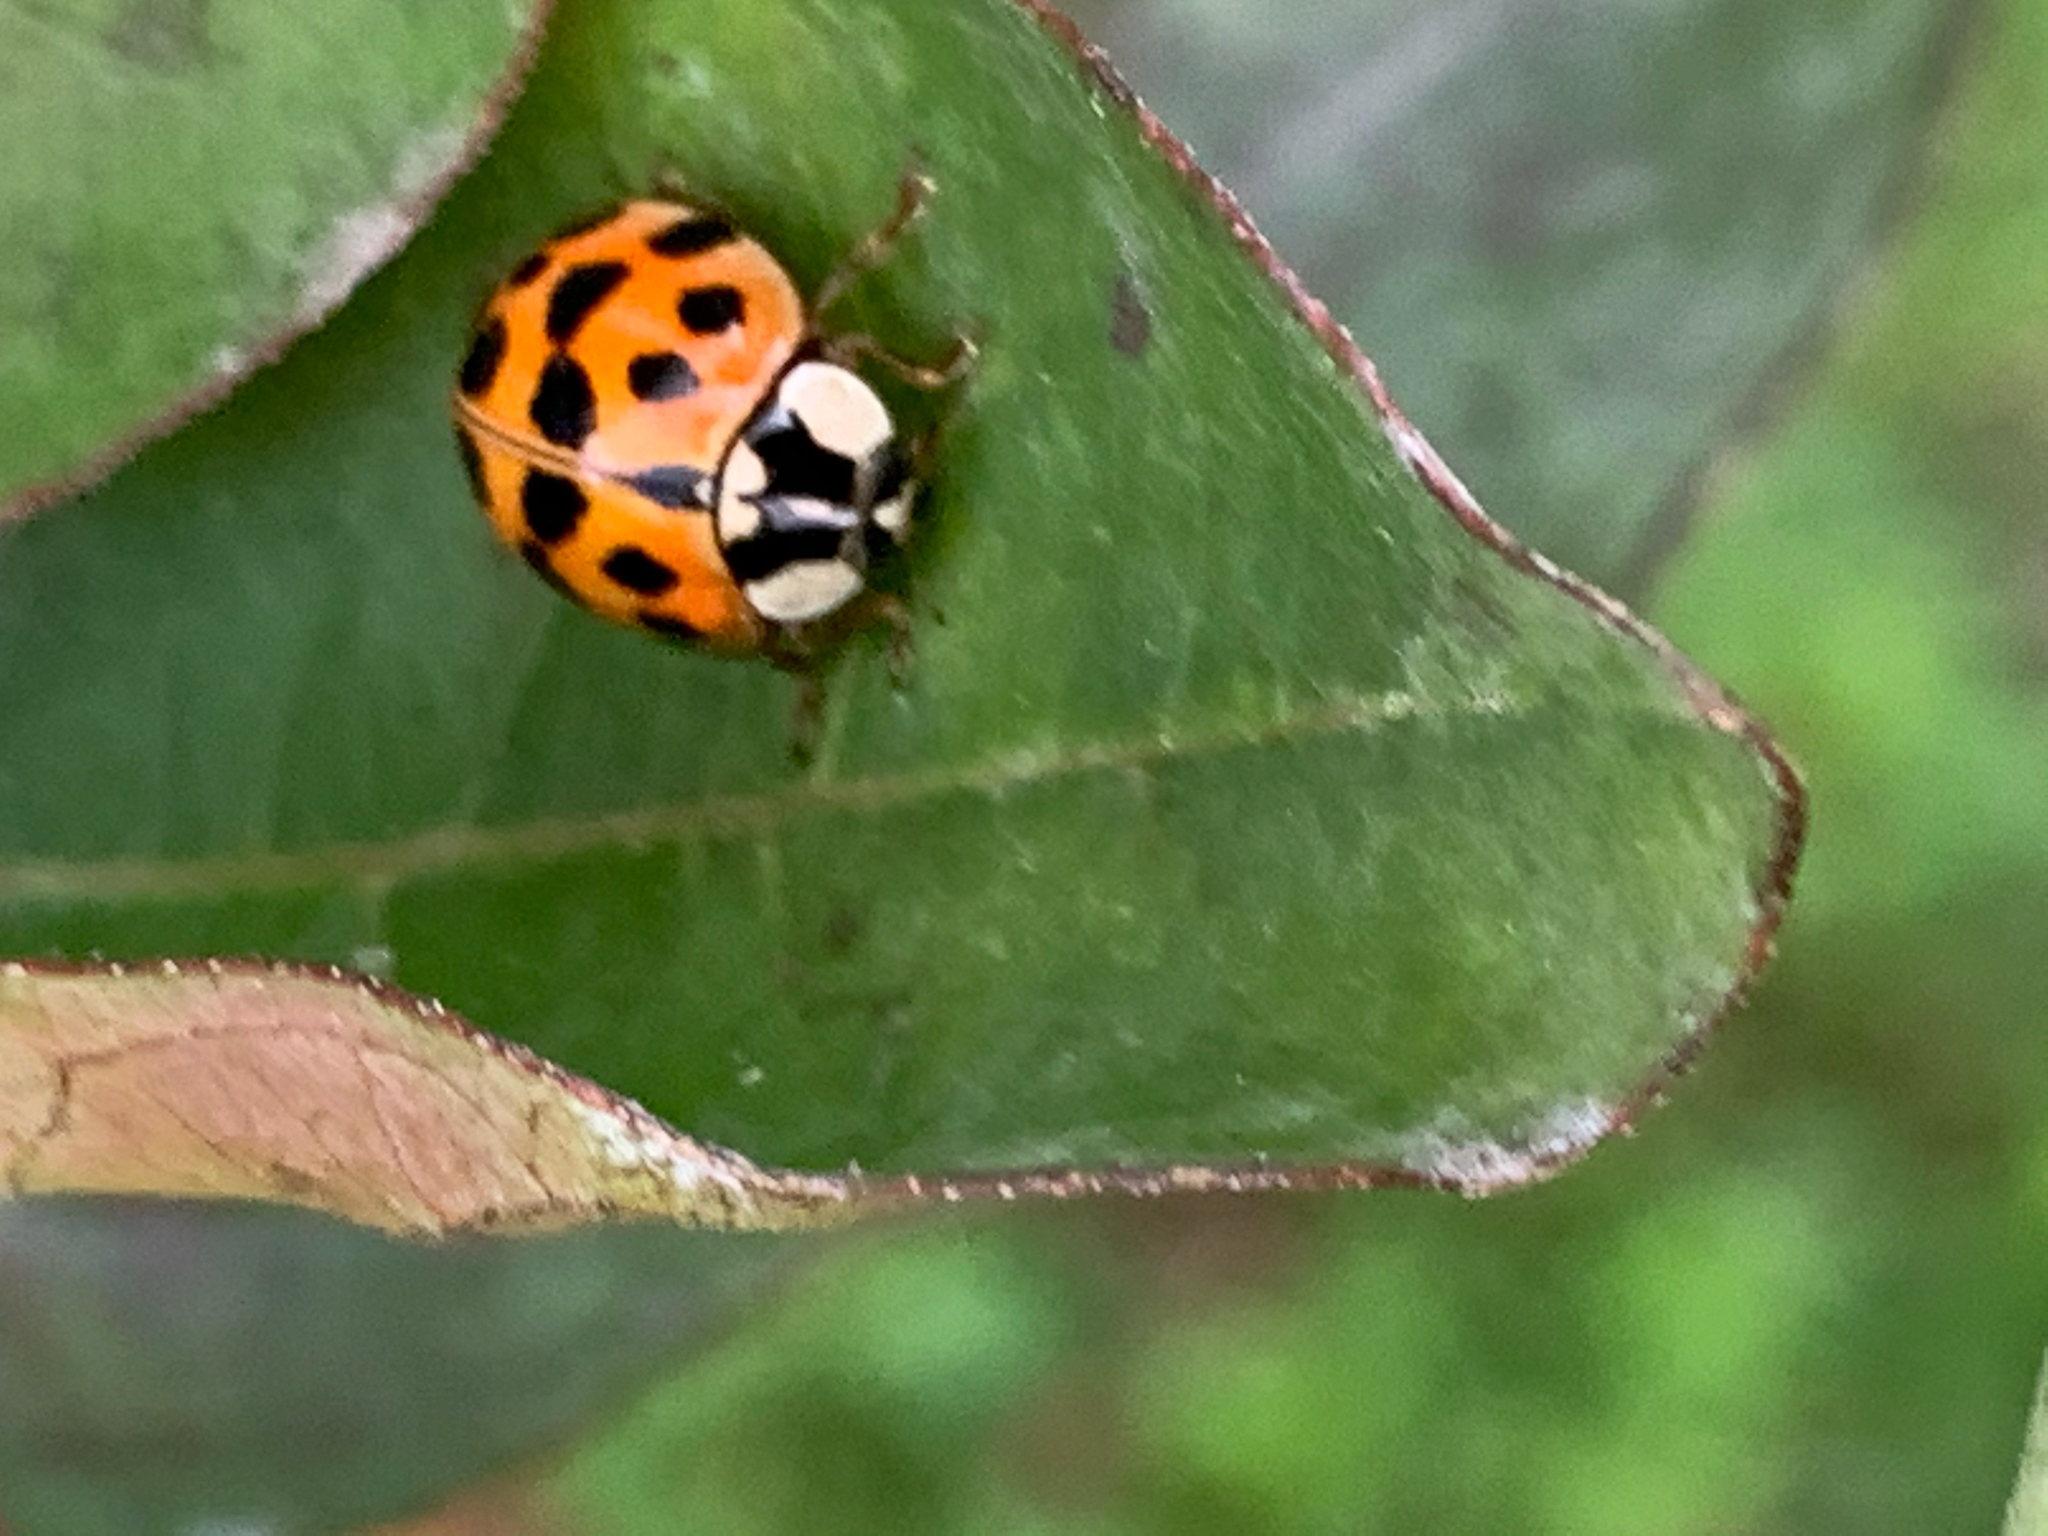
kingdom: Animalia
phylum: Arthropoda
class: Insecta
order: Coleoptera
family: Coccinellidae
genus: Harmonia
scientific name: Harmonia axyridis
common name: Harlequin ladybird
